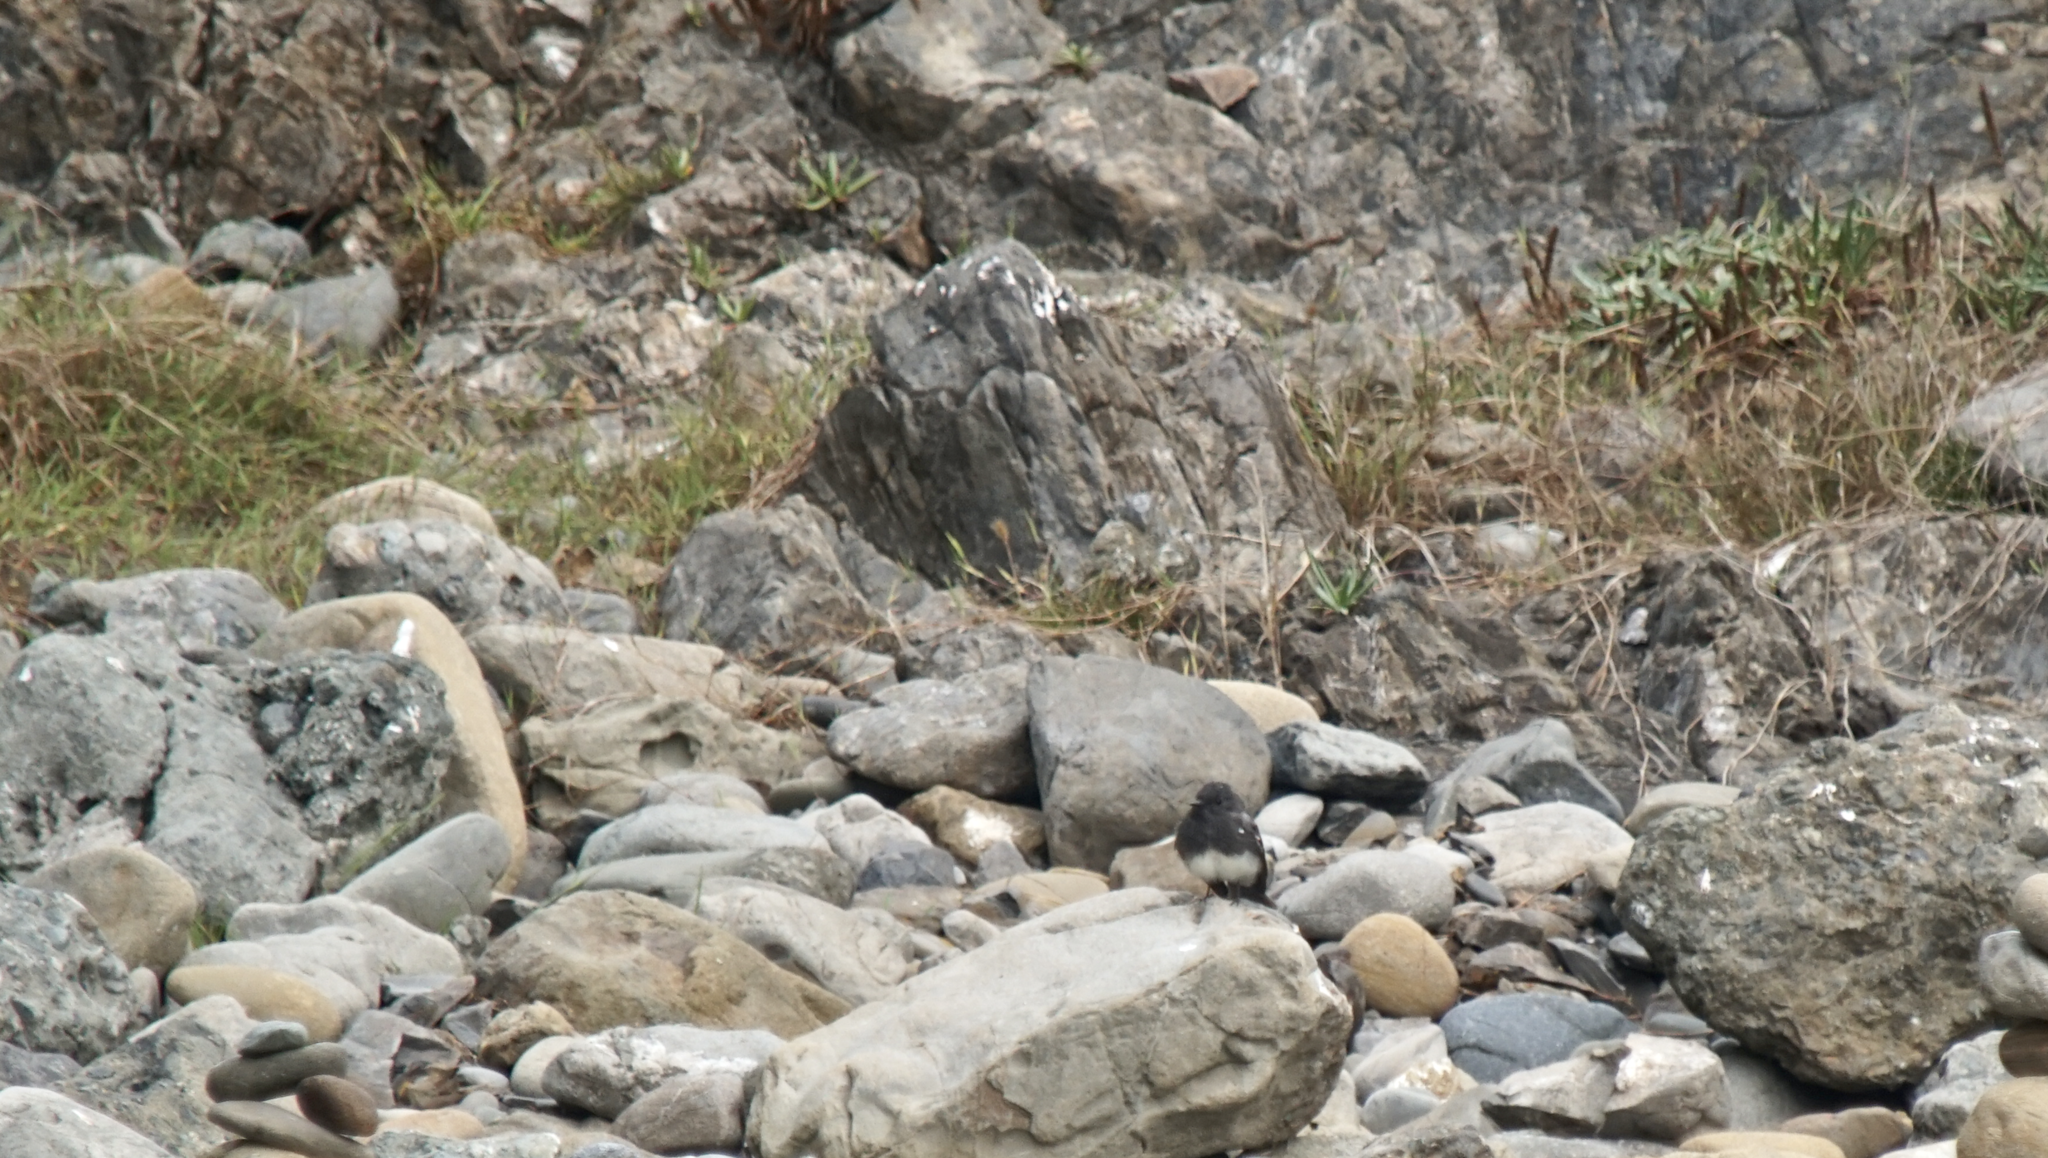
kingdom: Animalia
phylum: Chordata
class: Aves
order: Passeriformes
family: Tyrannidae
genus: Sayornis
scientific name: Sayornis nigricans
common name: Black phoebe
